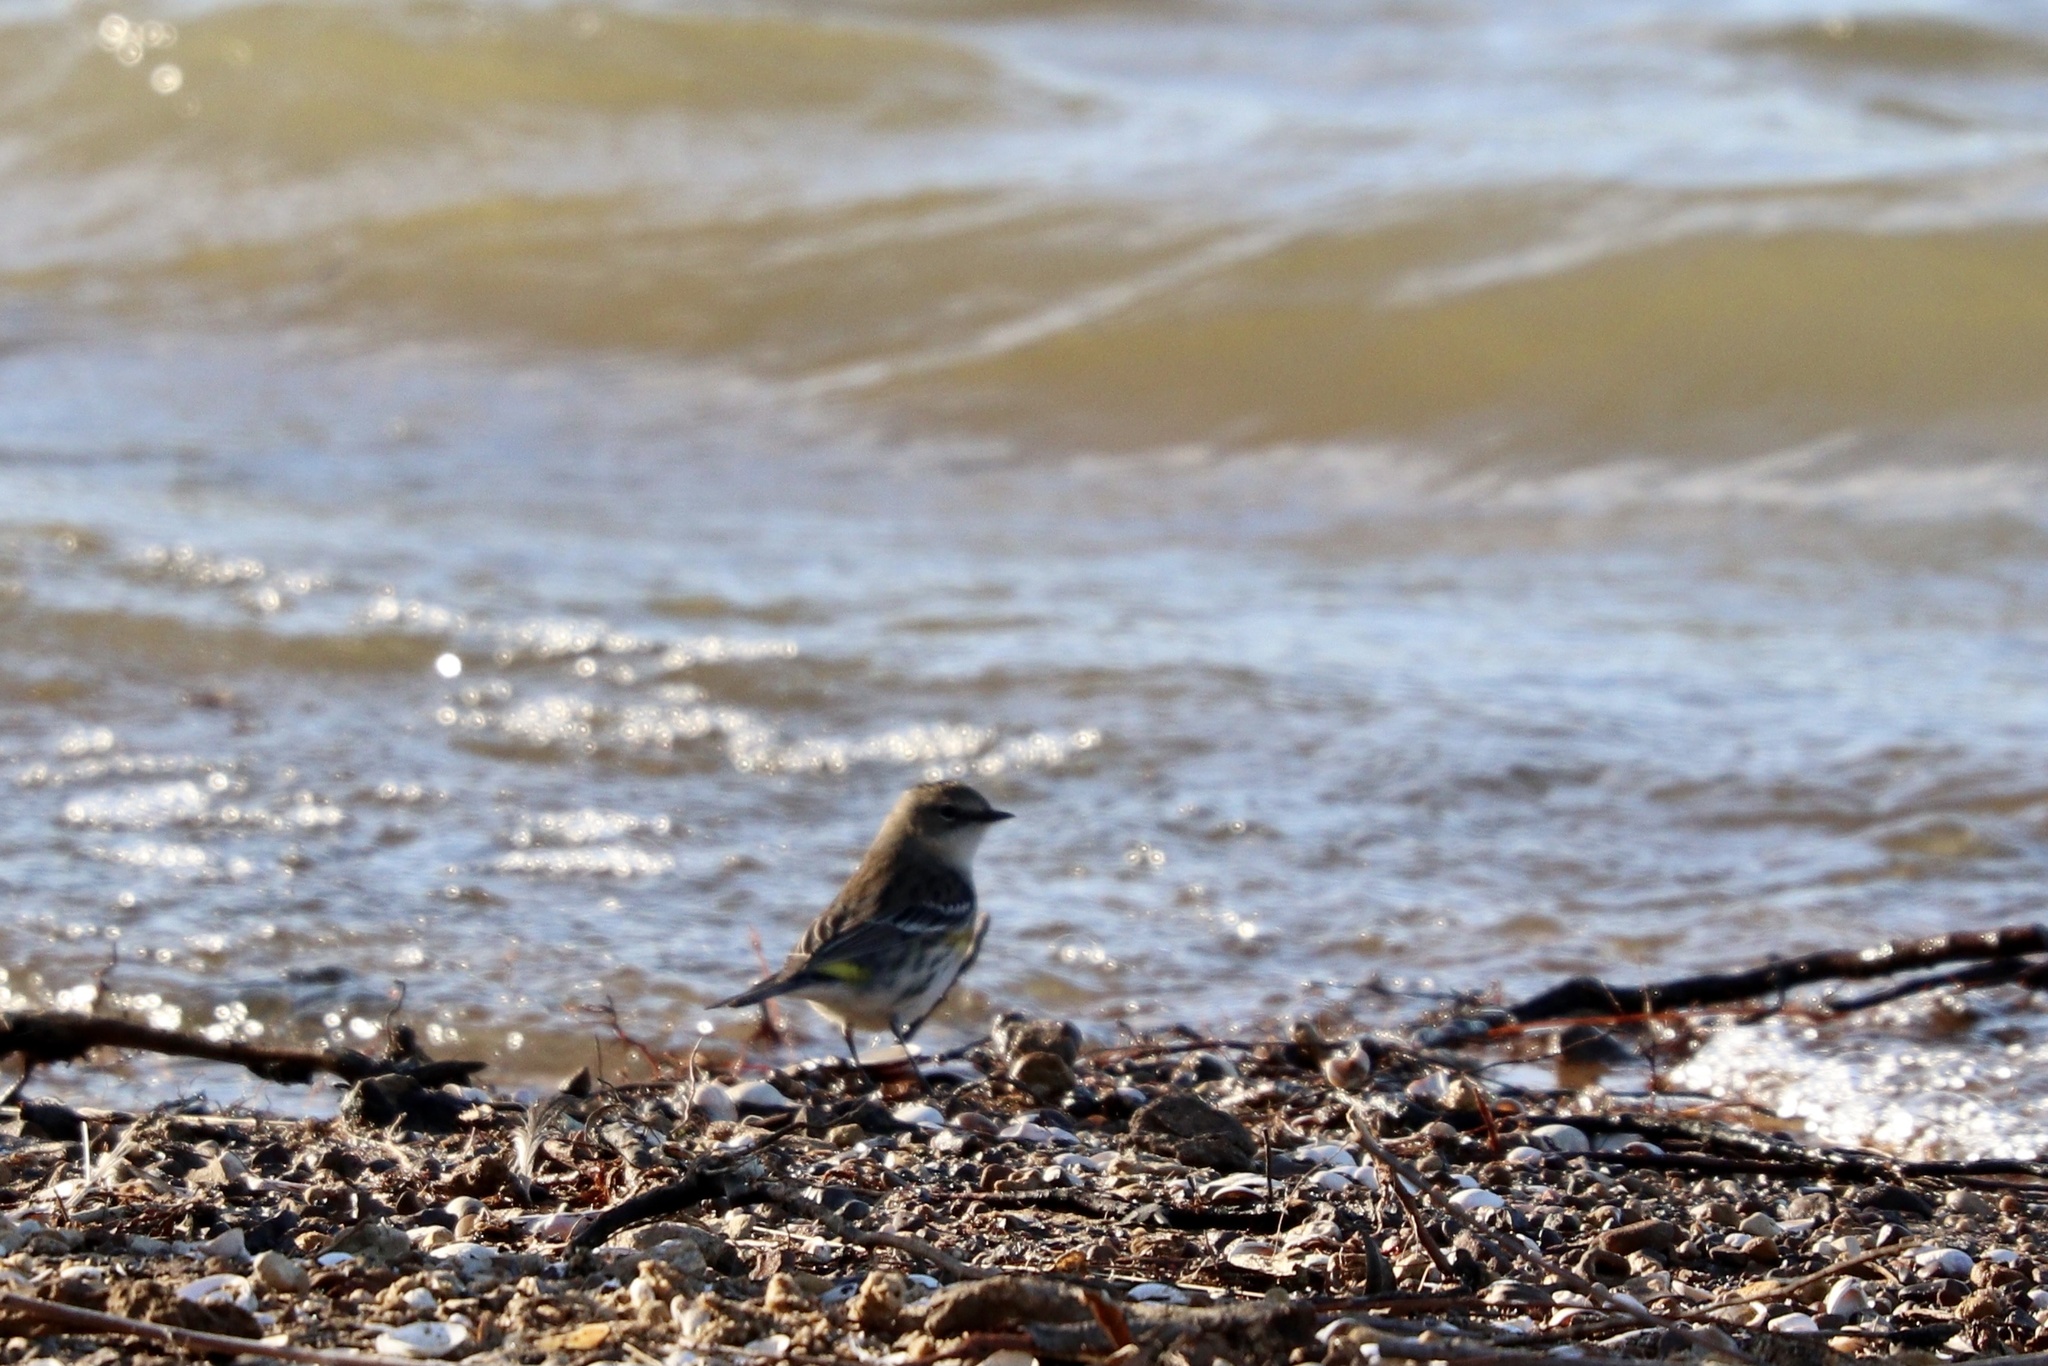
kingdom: Animalia
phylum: Chordata
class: Aves
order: Passeriformes
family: Parulidae
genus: Setophaga
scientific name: Setophaga coronata
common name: Myrtle warbler
